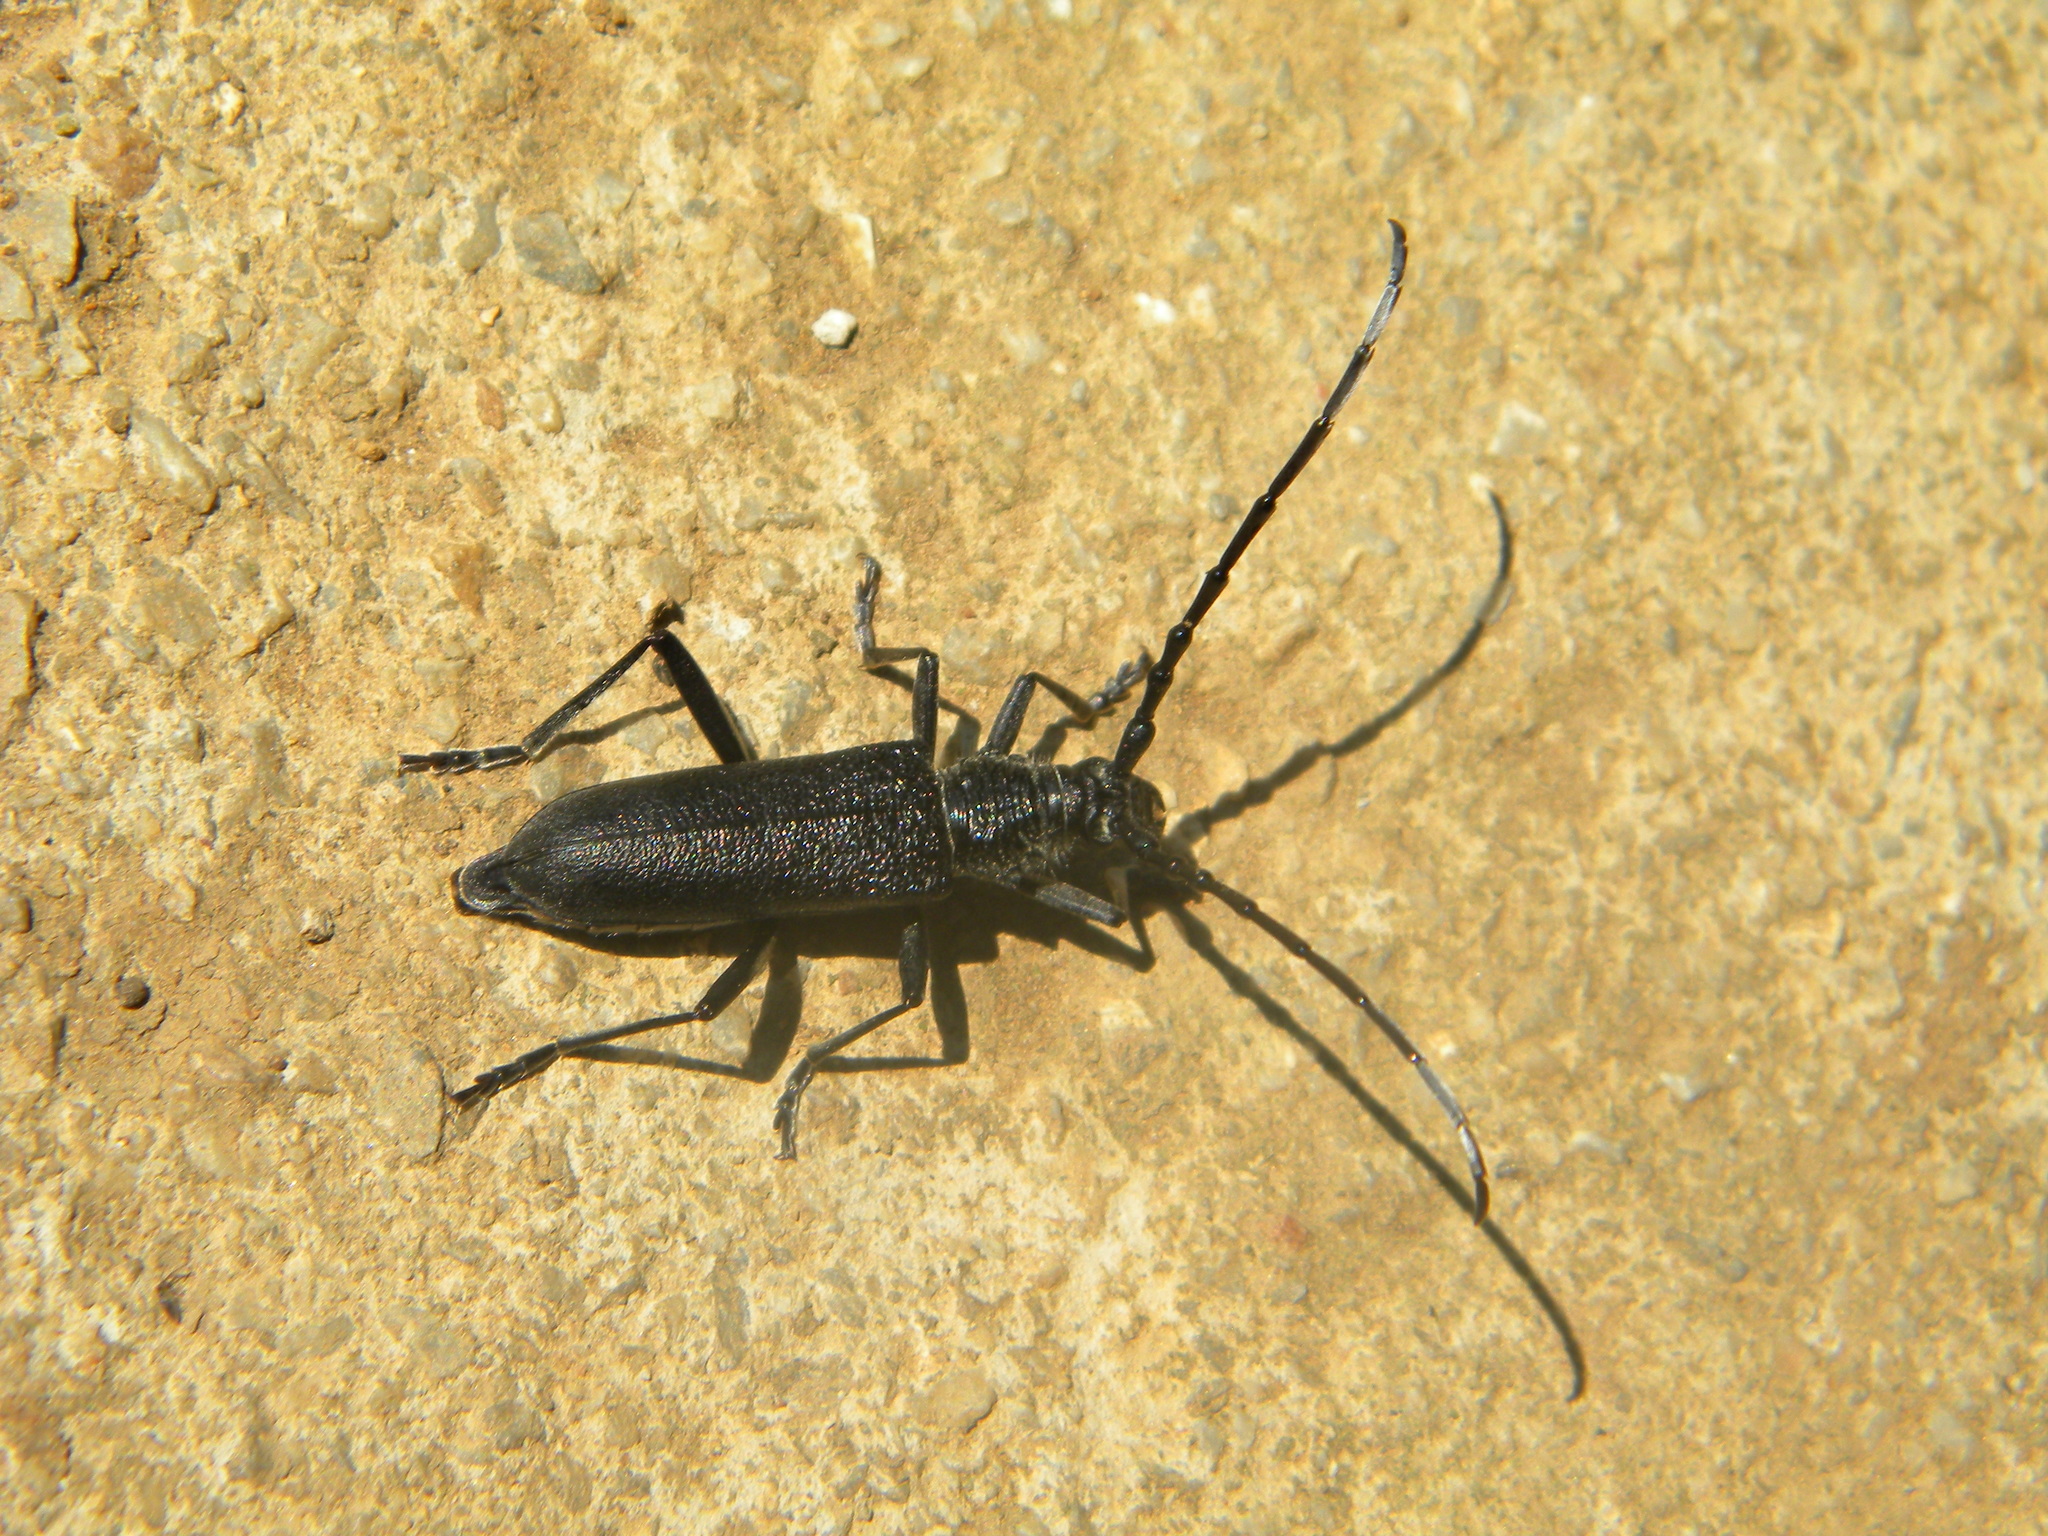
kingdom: Animalia
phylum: Arthropoda
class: Insecta
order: Coleoptera
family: Cerambycidae
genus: Cerambyx
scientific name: Cerambyx scopolii
